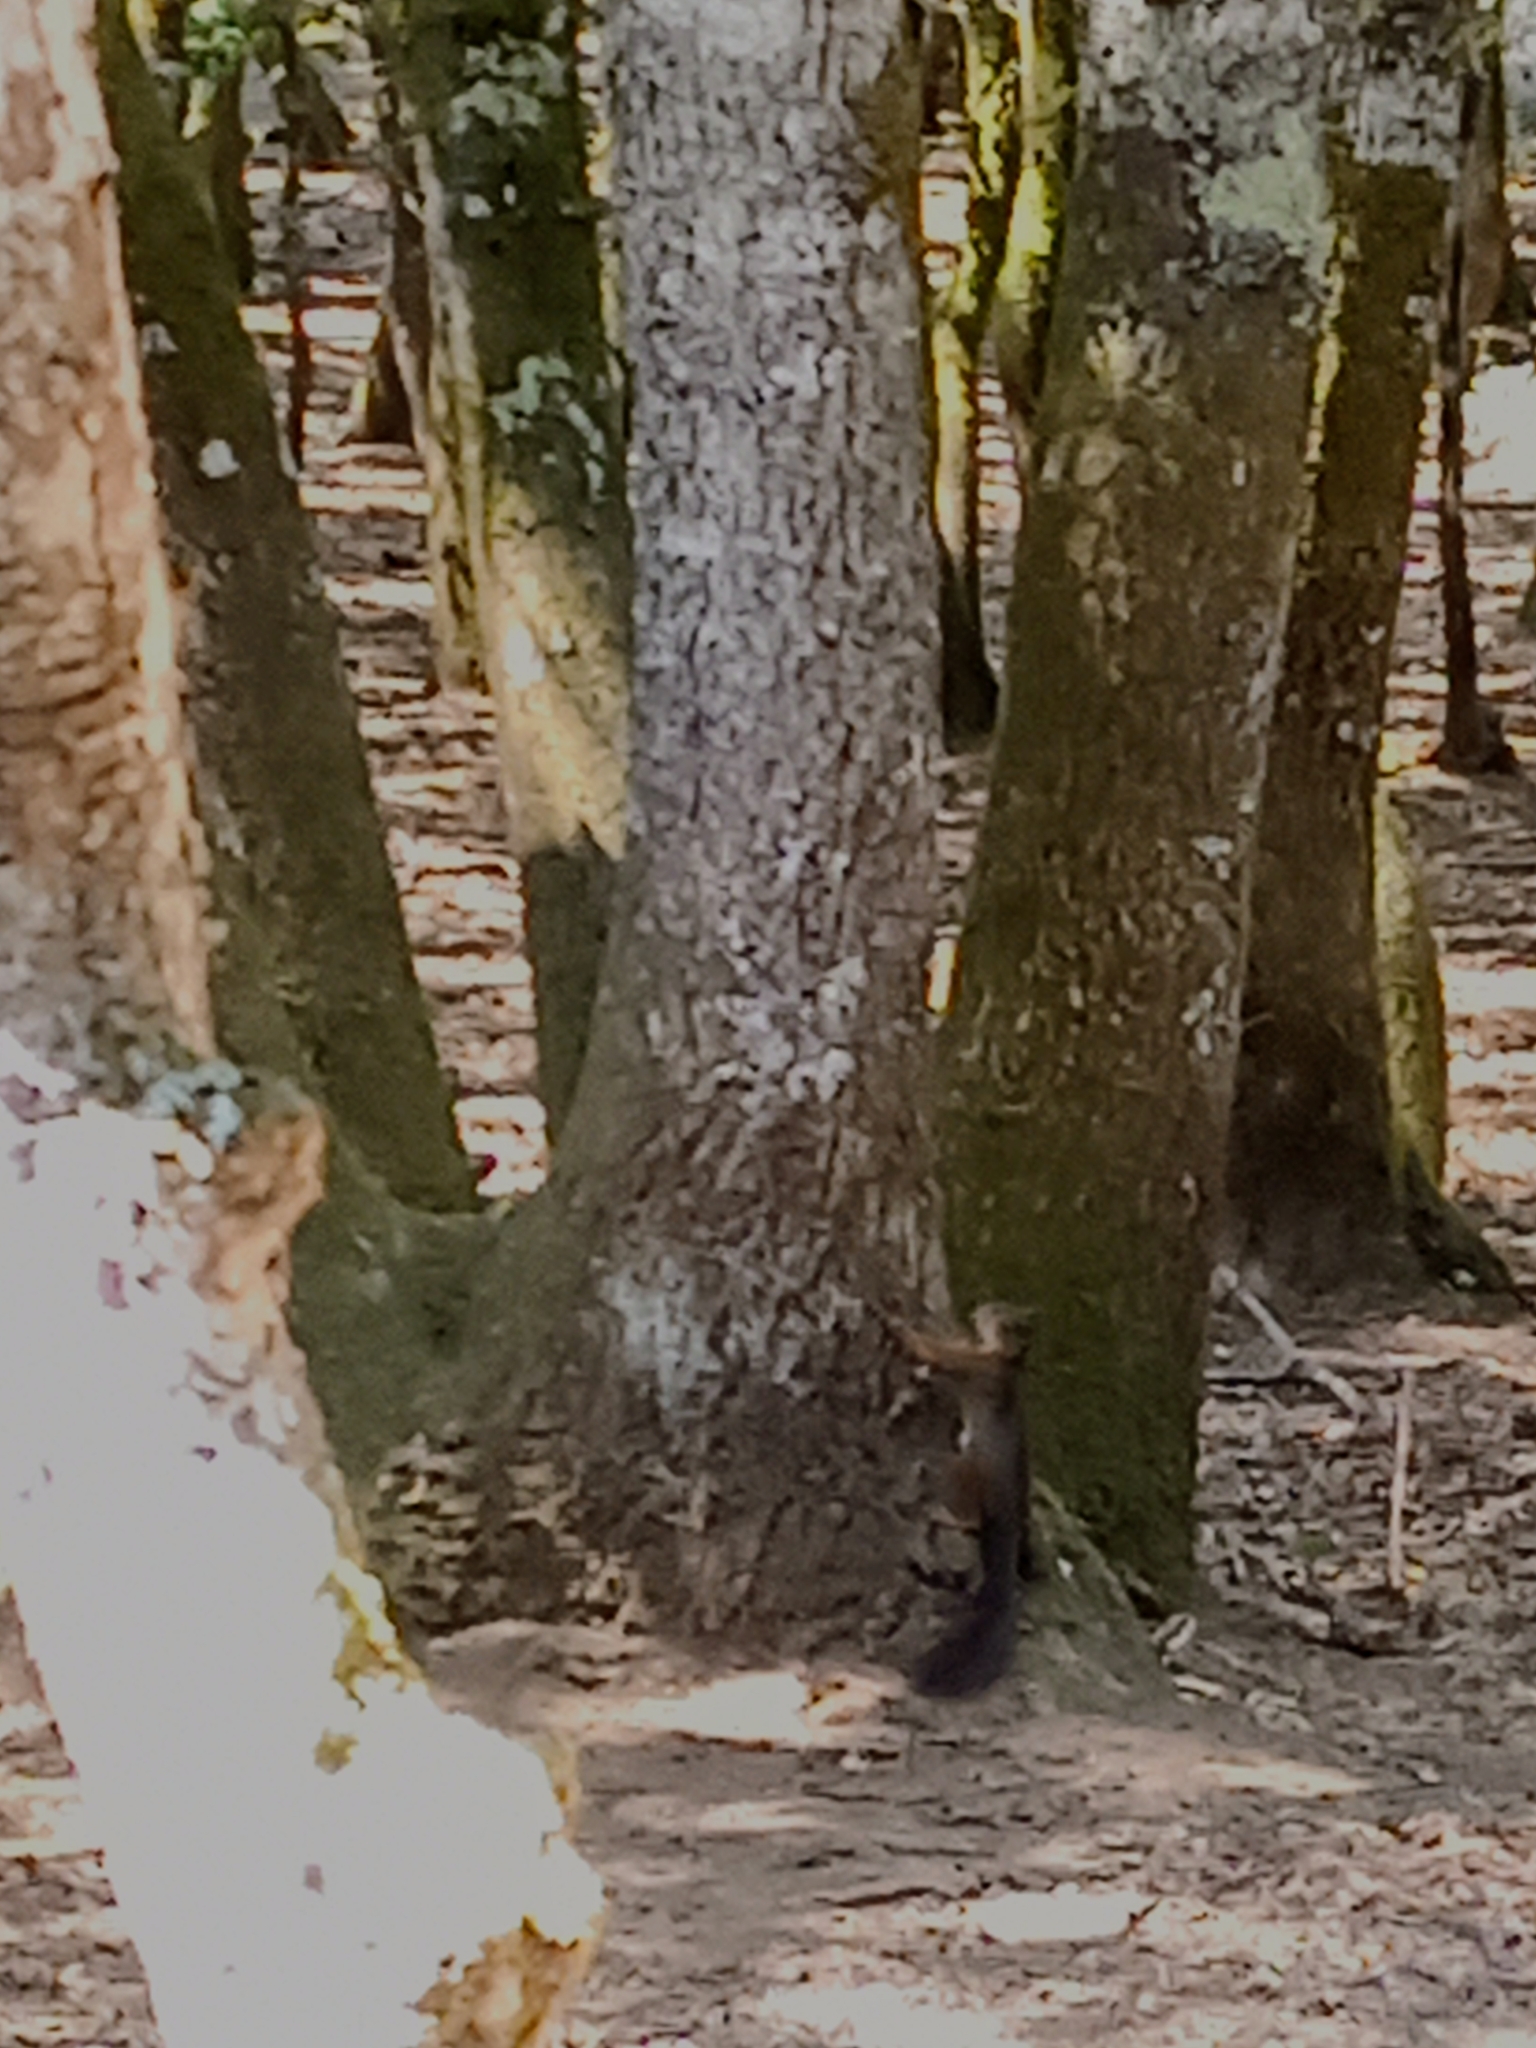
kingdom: Animalia
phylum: Chordata
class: Mammalia
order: Rodentia
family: Sciuridae
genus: Sciurus
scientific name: Sciurus vulgaris
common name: Eurasian red squirrel
